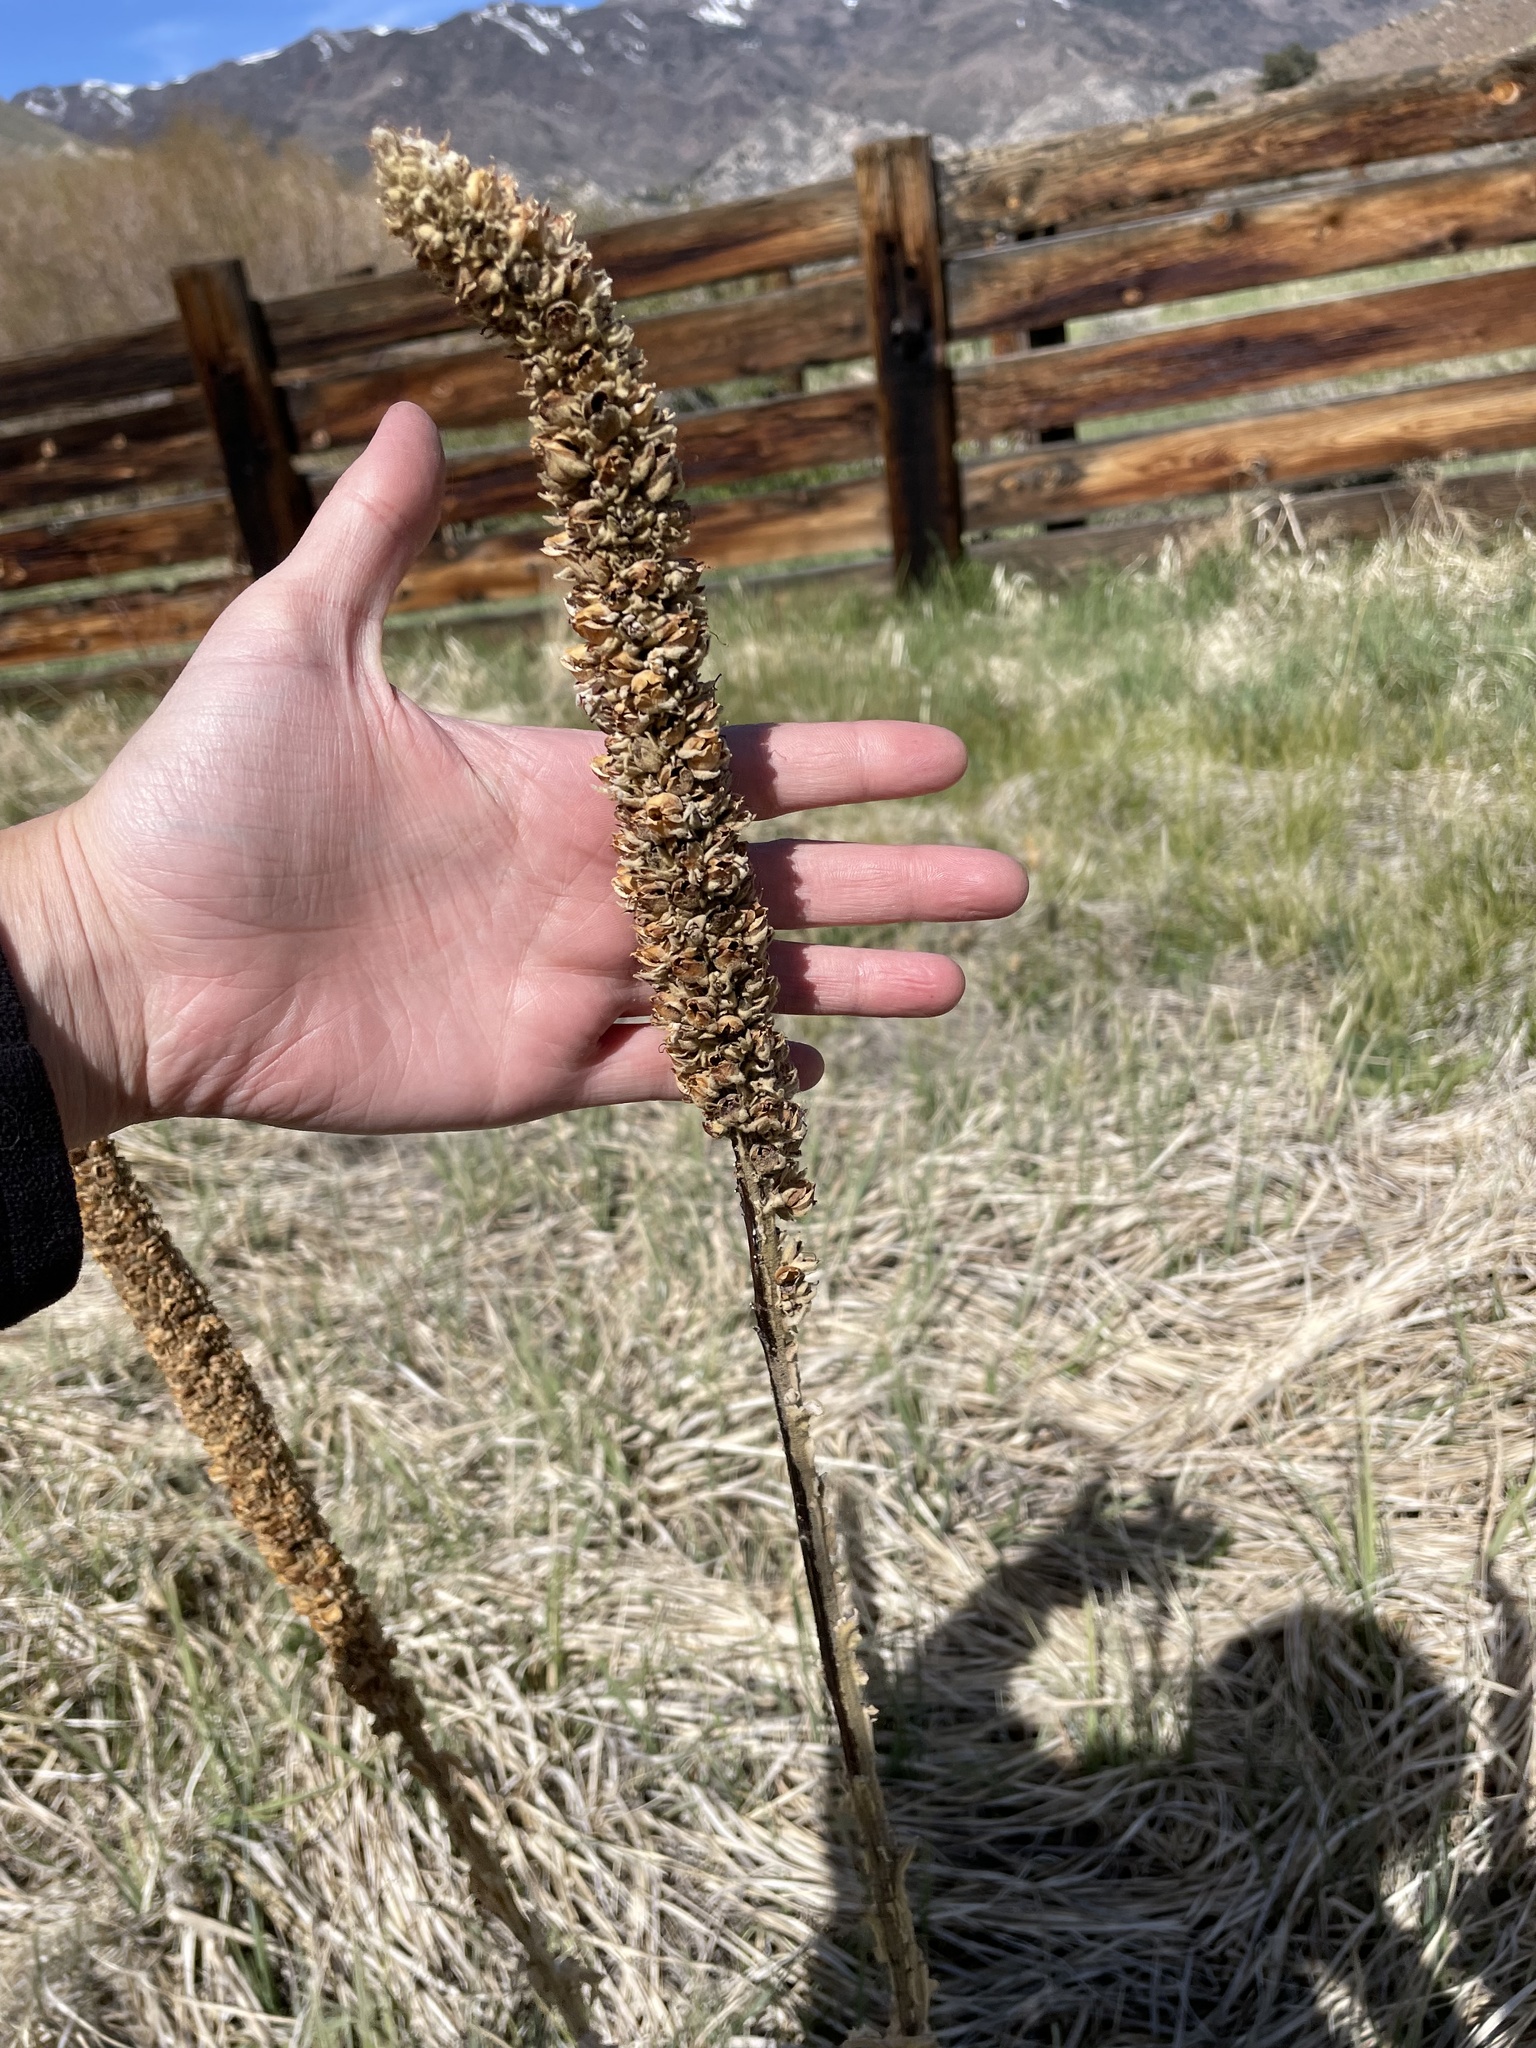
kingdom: Plantae
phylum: Tracheophyta
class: Magnoliopsida
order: Lamiales
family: Scrophulariaceae
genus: Verbascum
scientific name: Verbascum thapsus
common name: Common mullein
